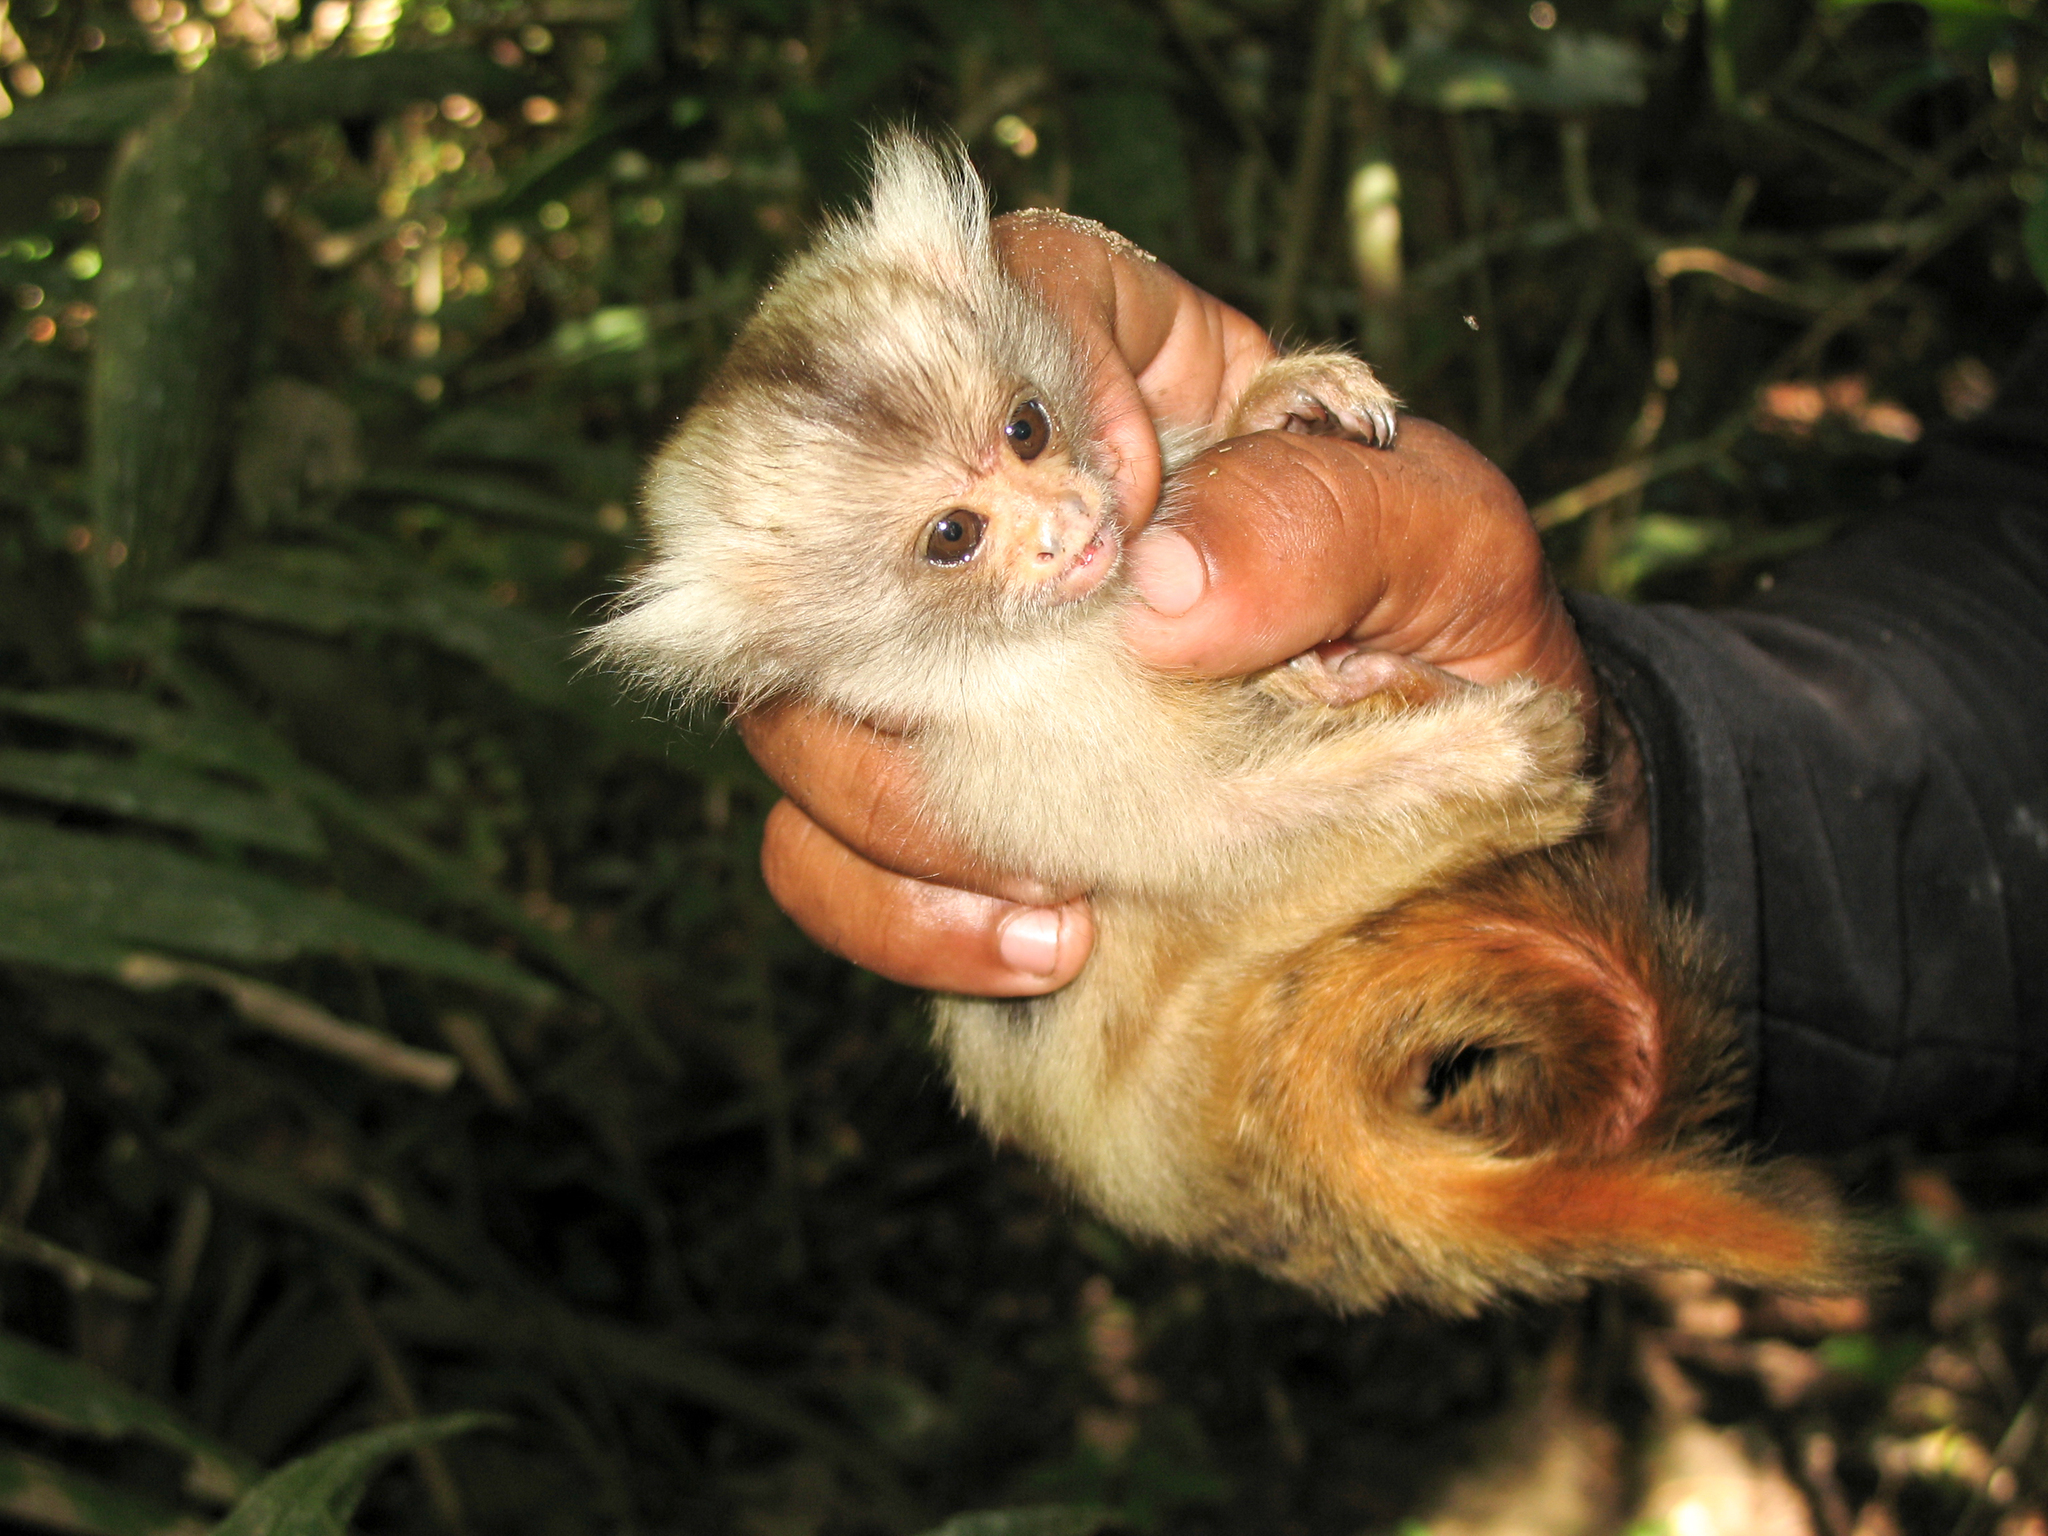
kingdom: Animalia
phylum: Chordata
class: Mammalia
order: Primates
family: Callitrichidae
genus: Mico
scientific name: Mico chrysoleucos
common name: Gold-and-white marmoset
